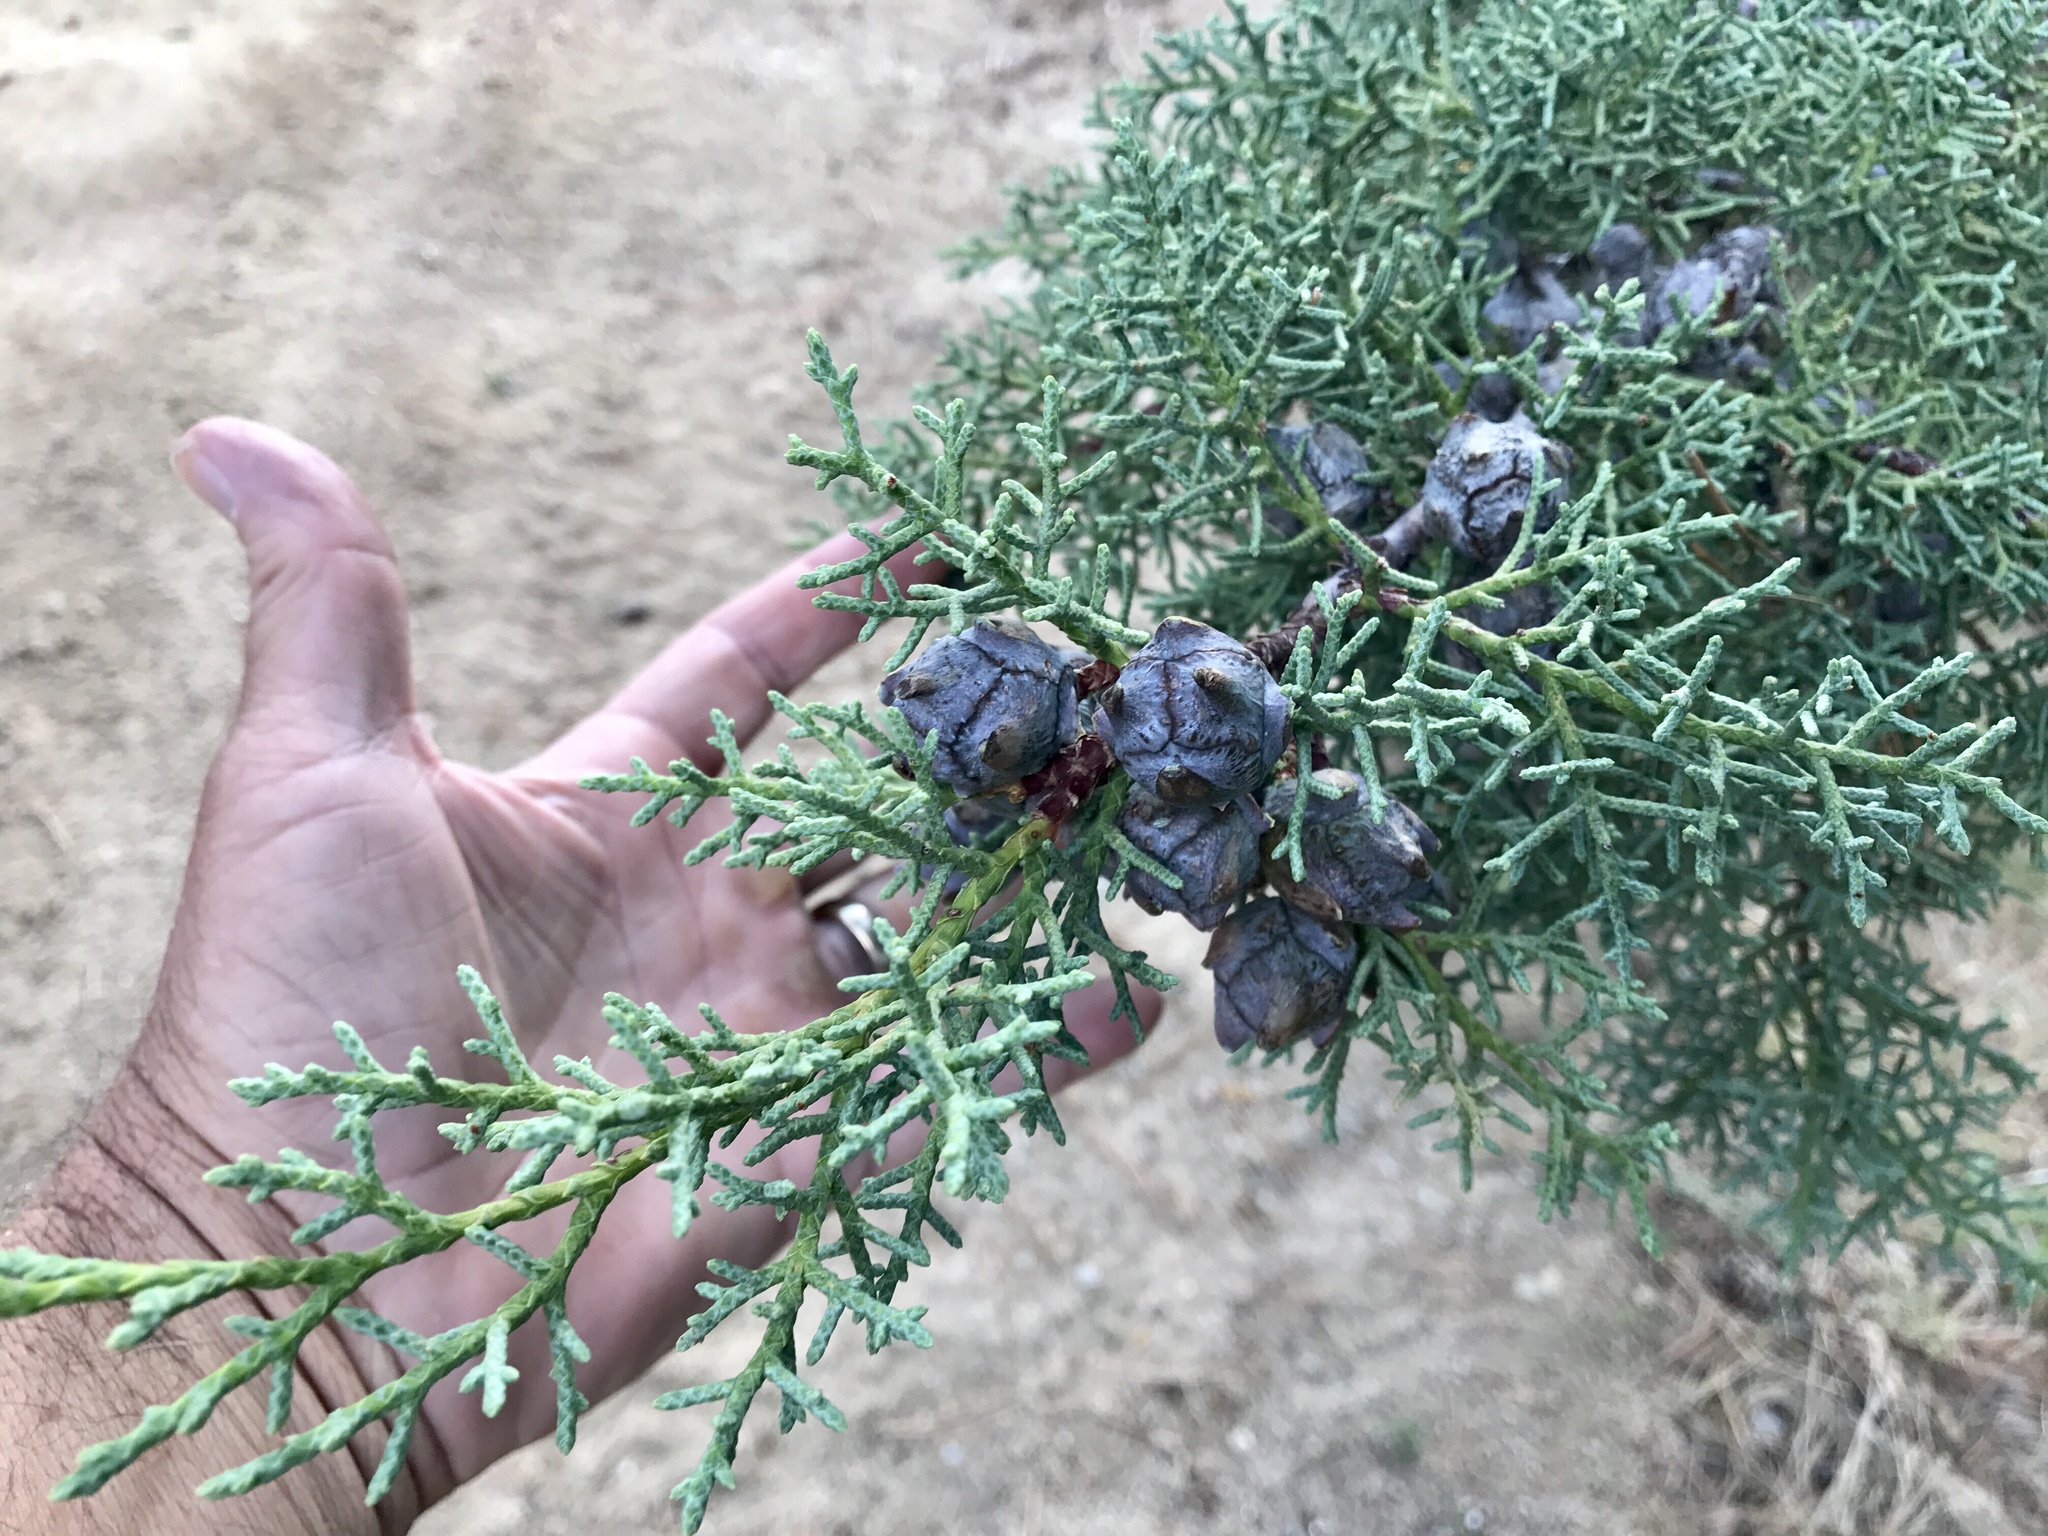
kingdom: Plantae
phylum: Tracheophyta
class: Pinopsida
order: Pinales
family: Cupressaceae
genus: Cupressus
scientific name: Cupressus arizonica
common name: Arizona cypress
